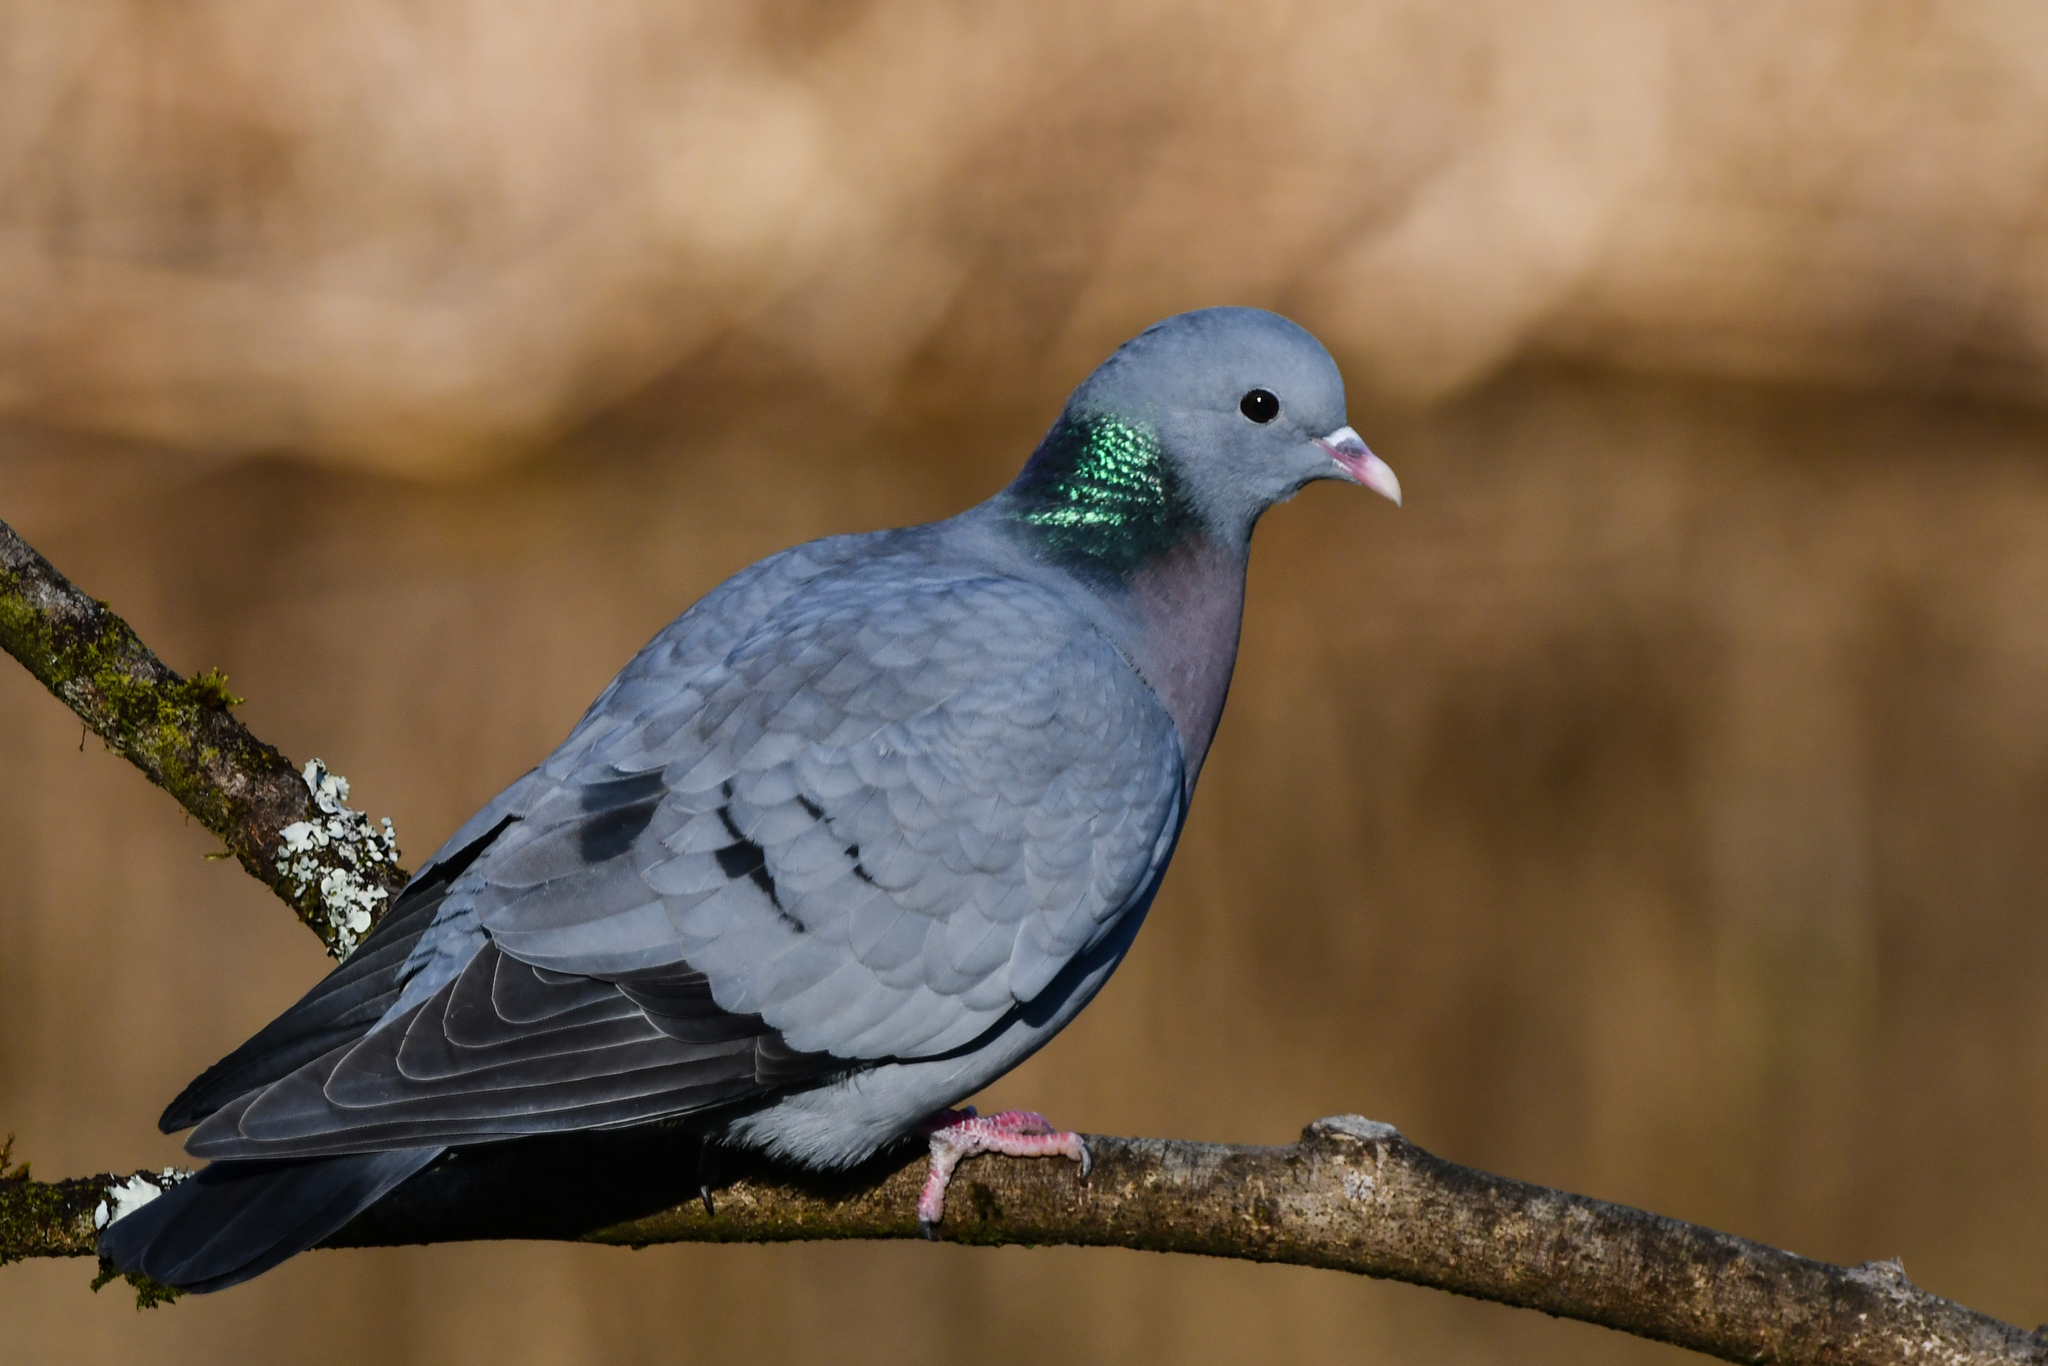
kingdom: Animalia
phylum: Chordata
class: Aves
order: Columbiformes
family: Columbidae
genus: Columba
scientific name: Columba oenas
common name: Stock dove
